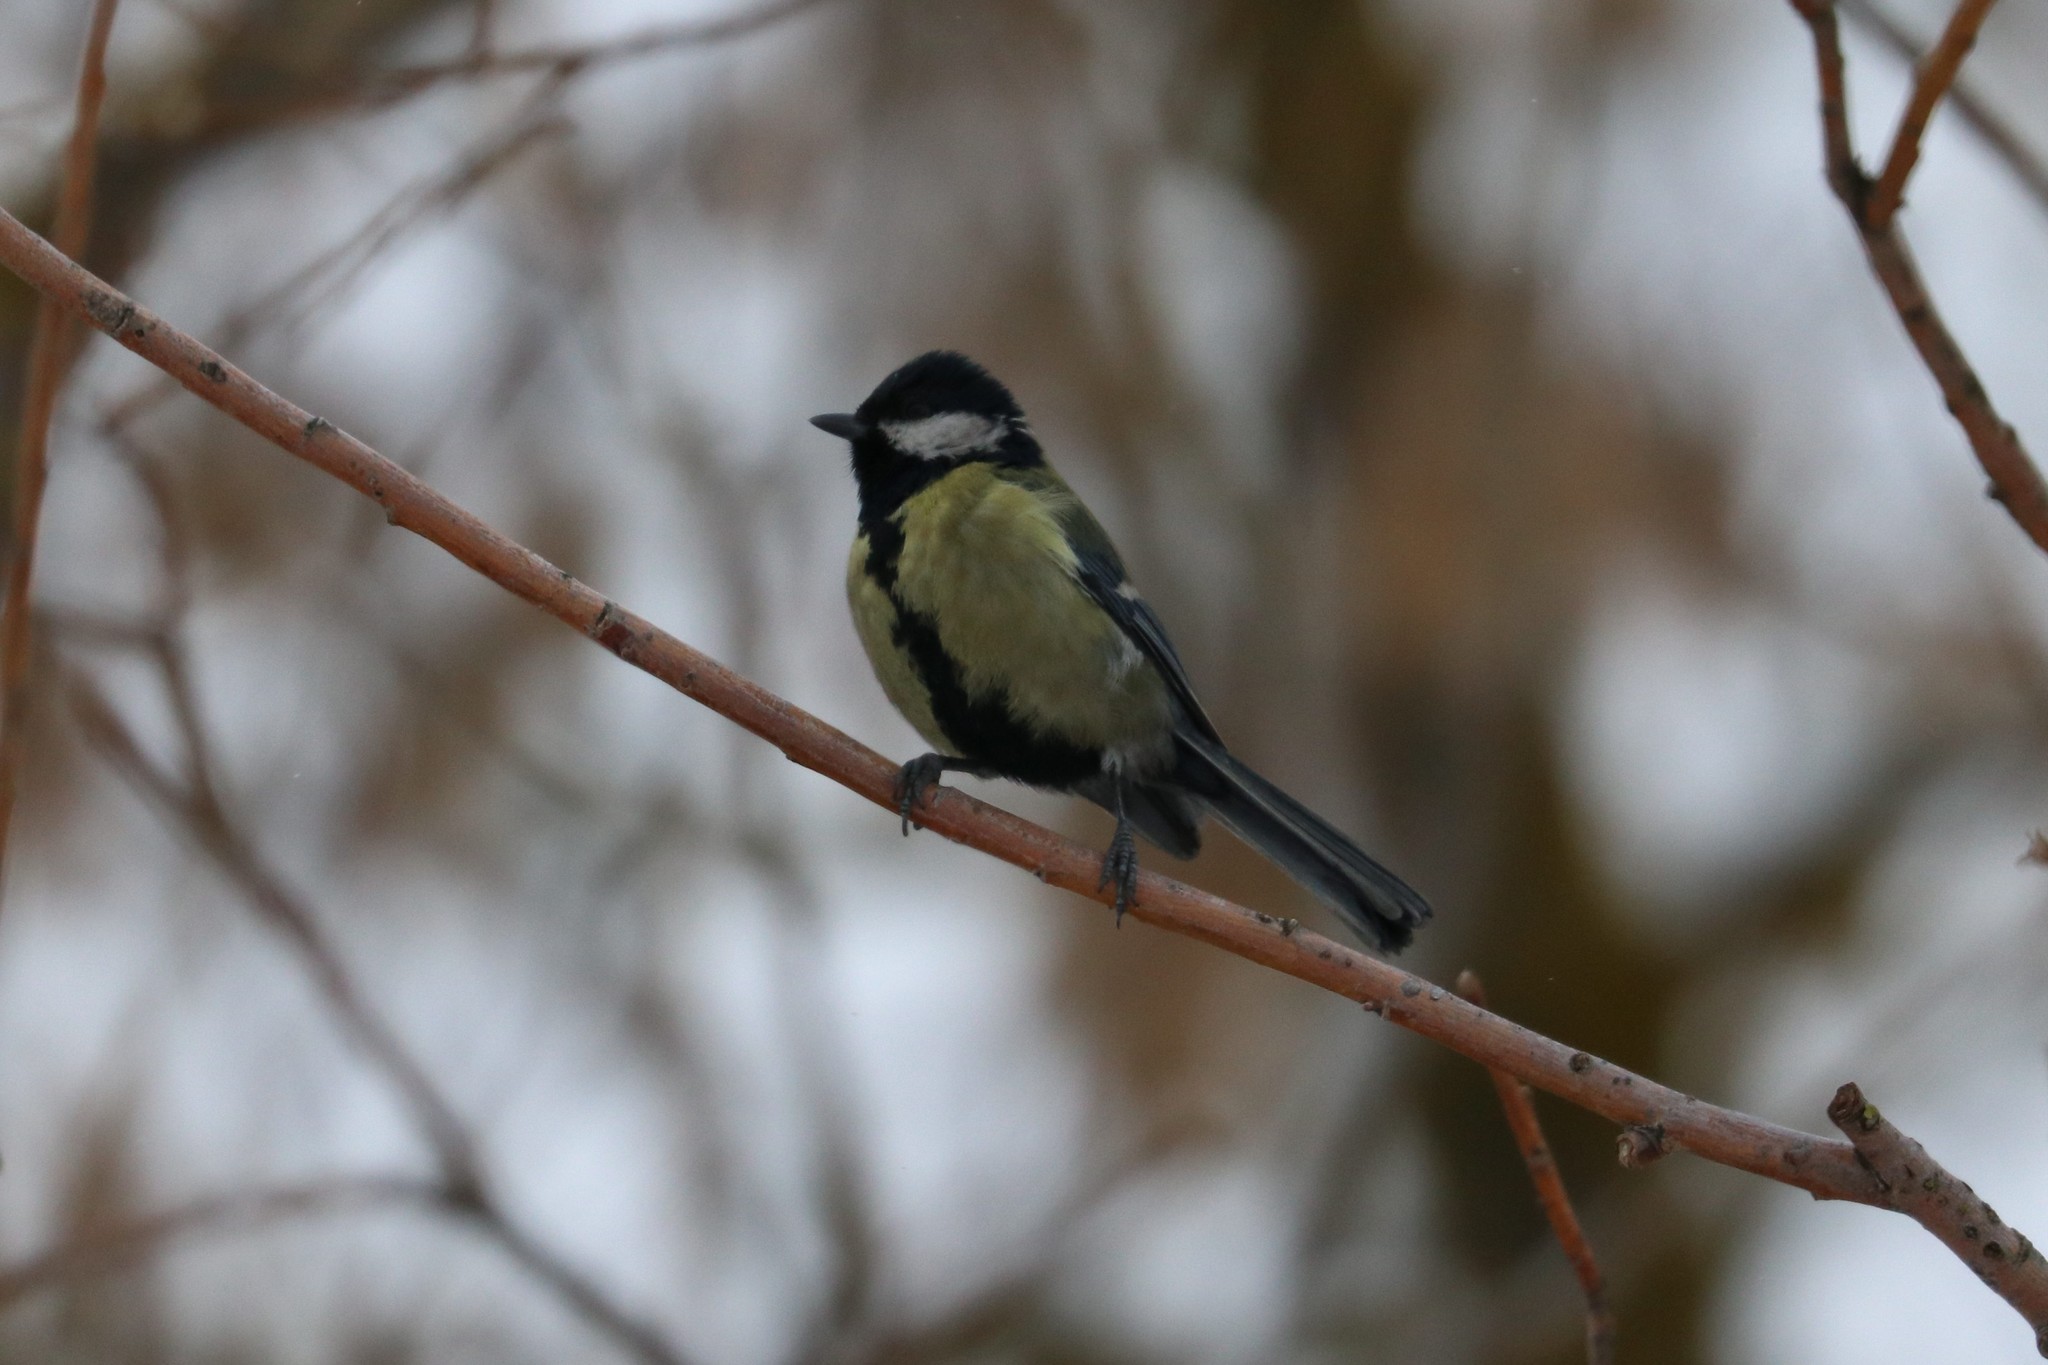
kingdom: Animalia
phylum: Chordata
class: Aves
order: Passeriformes
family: Paridae
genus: Parus
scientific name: Parus major
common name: Great tit
